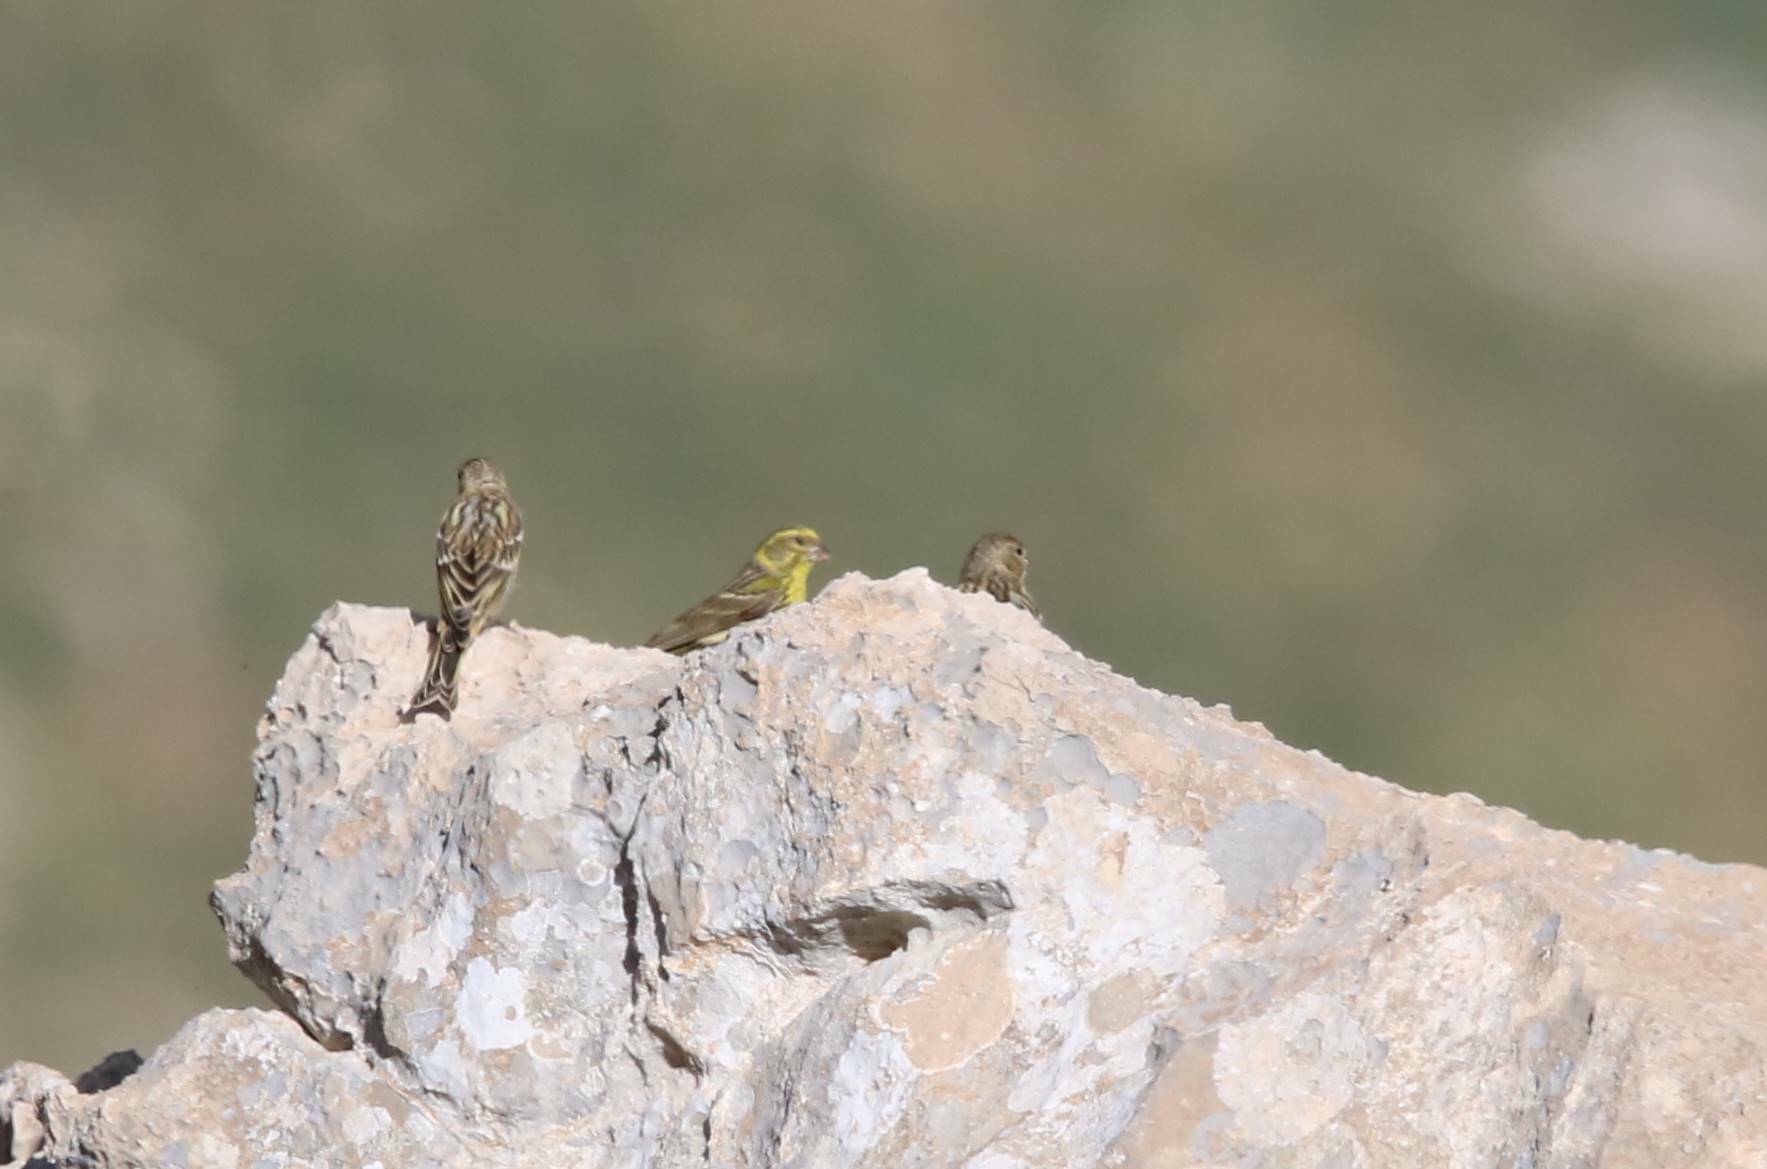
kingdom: Animalia
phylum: Chordata
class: Aves
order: Passeriformes
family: Fringillidae
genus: Serinus
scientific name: Serinus serinus
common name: European serin
